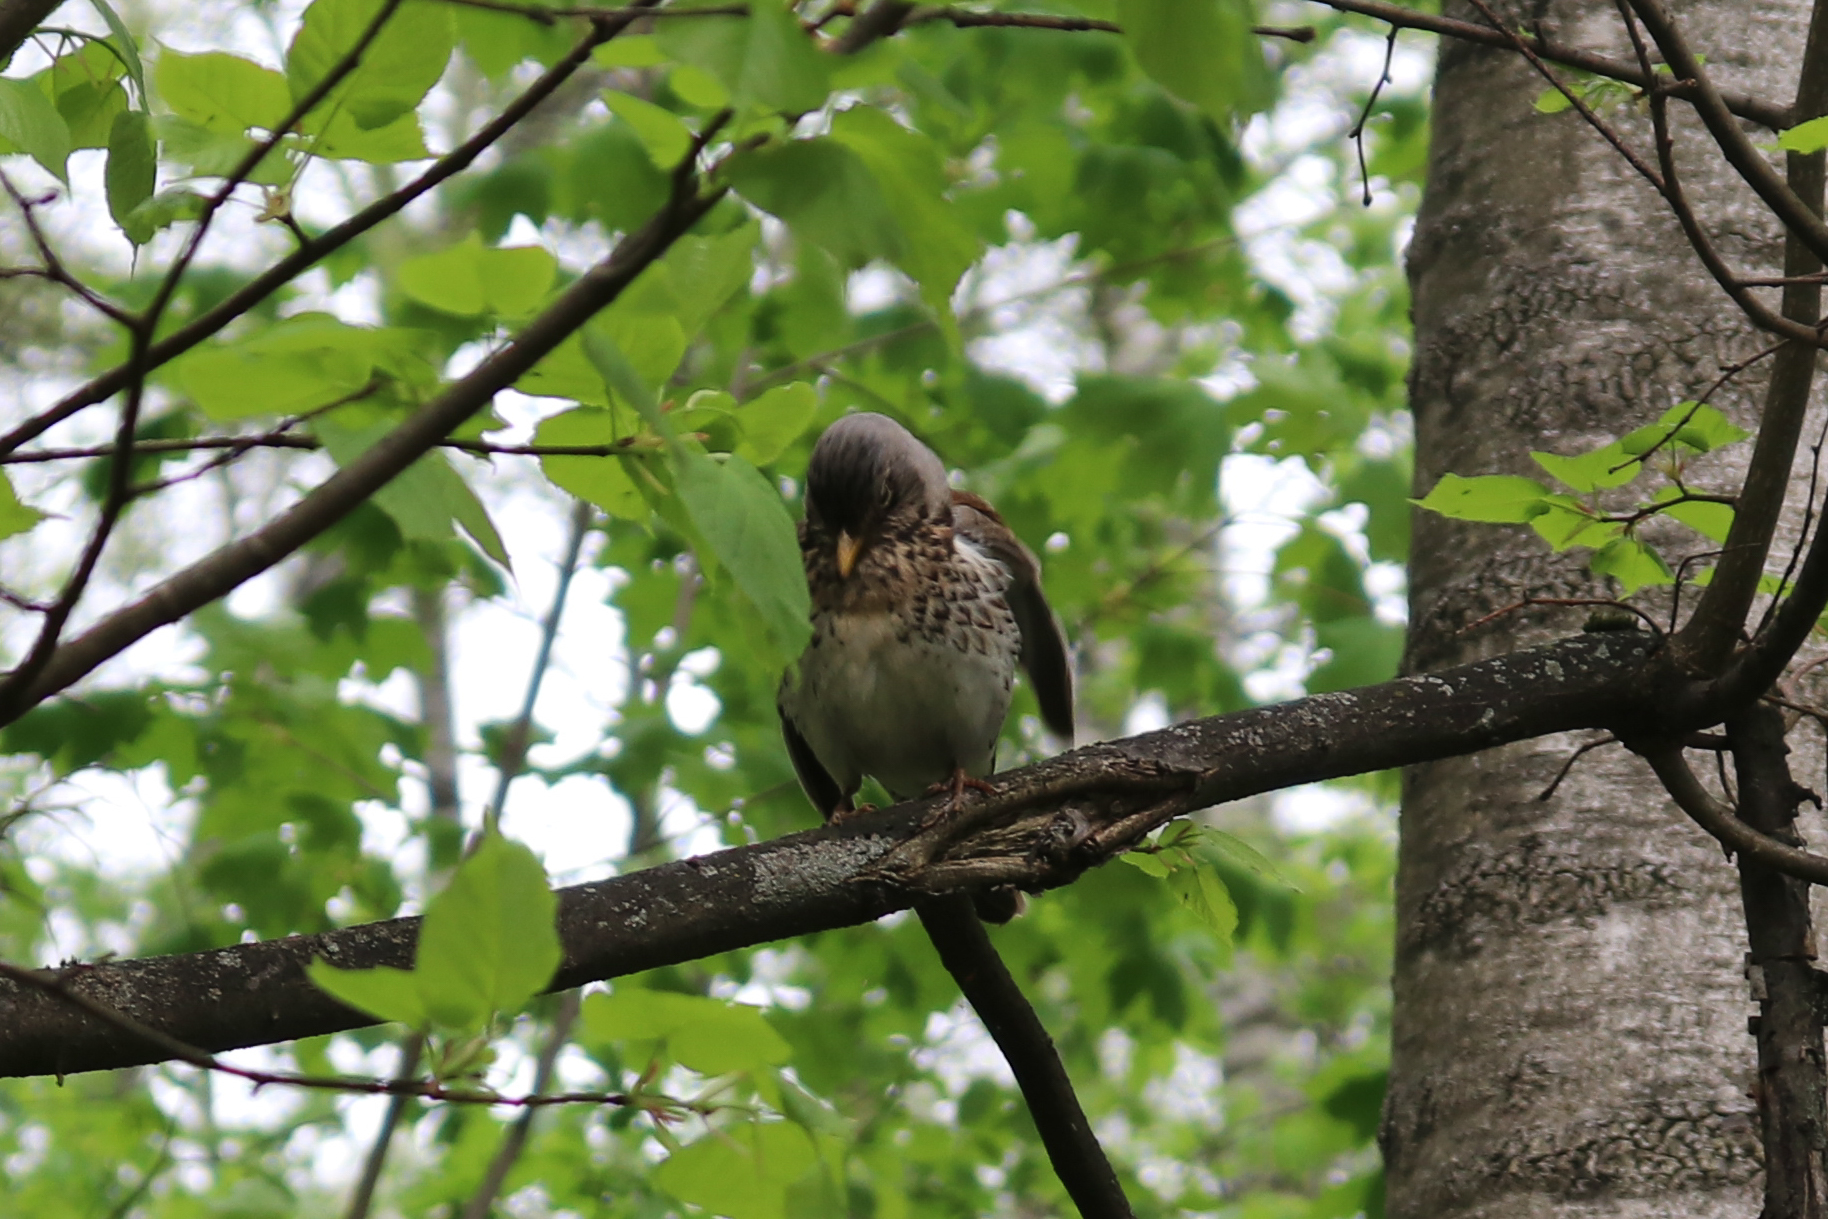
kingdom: Animalia
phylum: Chordata
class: Aves
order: Passeriformes
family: Turdidae
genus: Turdus
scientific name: Turdus pilaris
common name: Fieldfare
